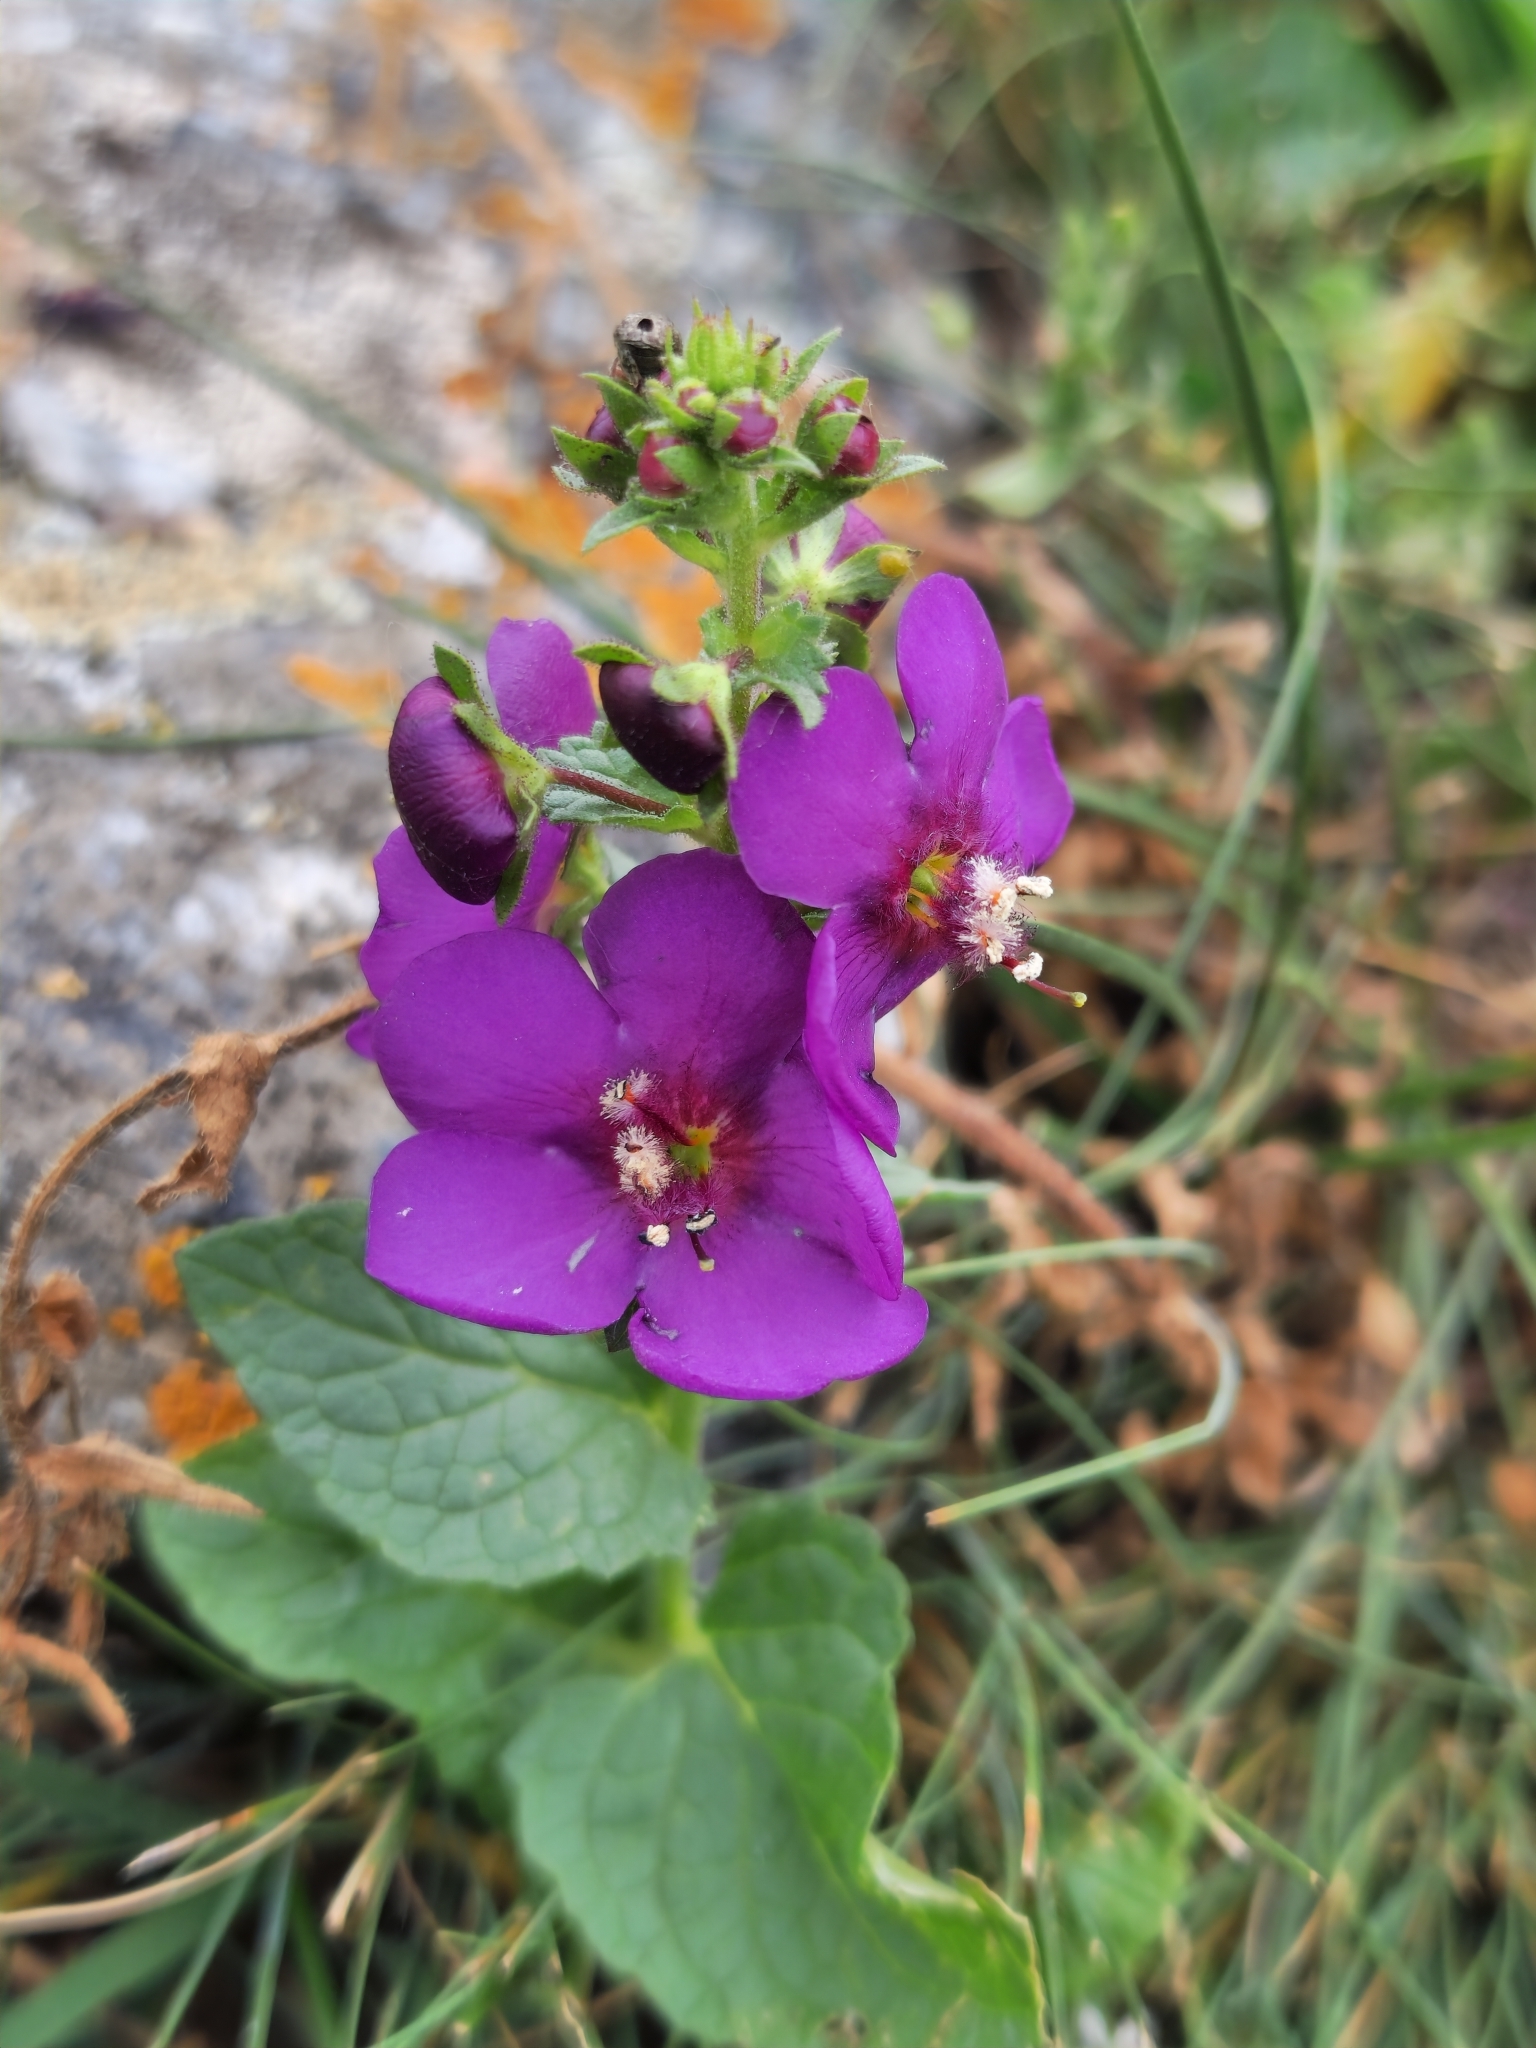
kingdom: Plantae
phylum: Tracheophyta
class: Magnoliopsida
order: Lamiales
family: Scrophulariaceae
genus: Verbascum
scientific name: Verbascum phoeniceum
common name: Purple mullein
